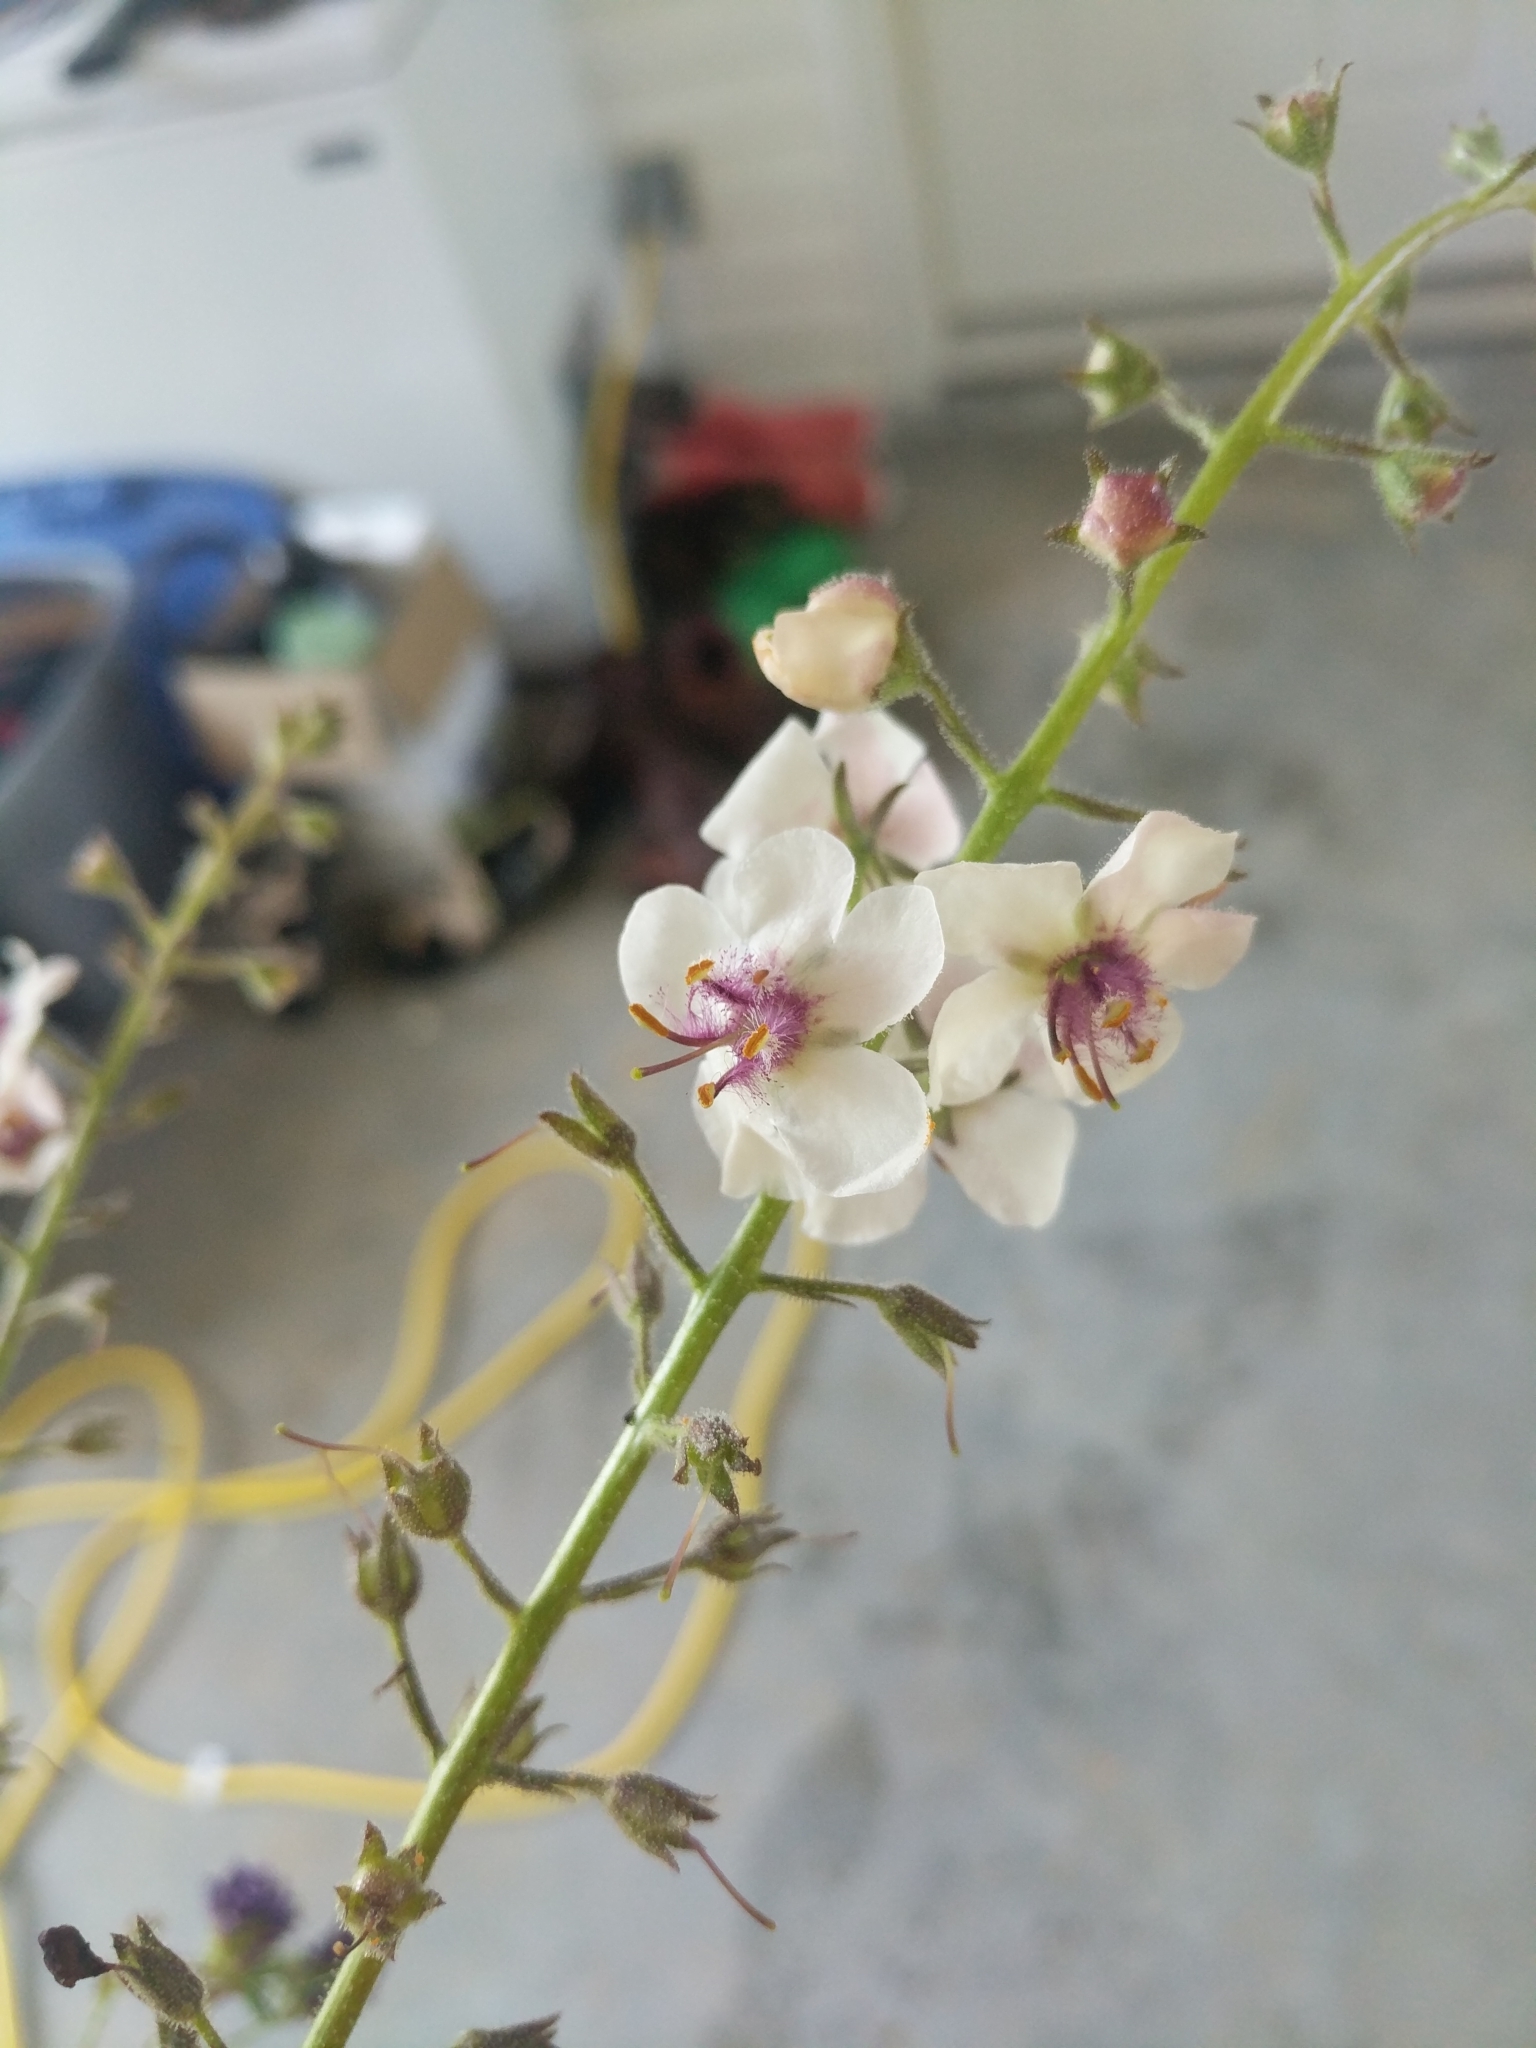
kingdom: Plantae
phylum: Tracheophyta
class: Magnoliopsida
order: Lamiales
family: Scrophulariaceae
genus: Verbascum
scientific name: Verbascum blattaria
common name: Moth mullein
